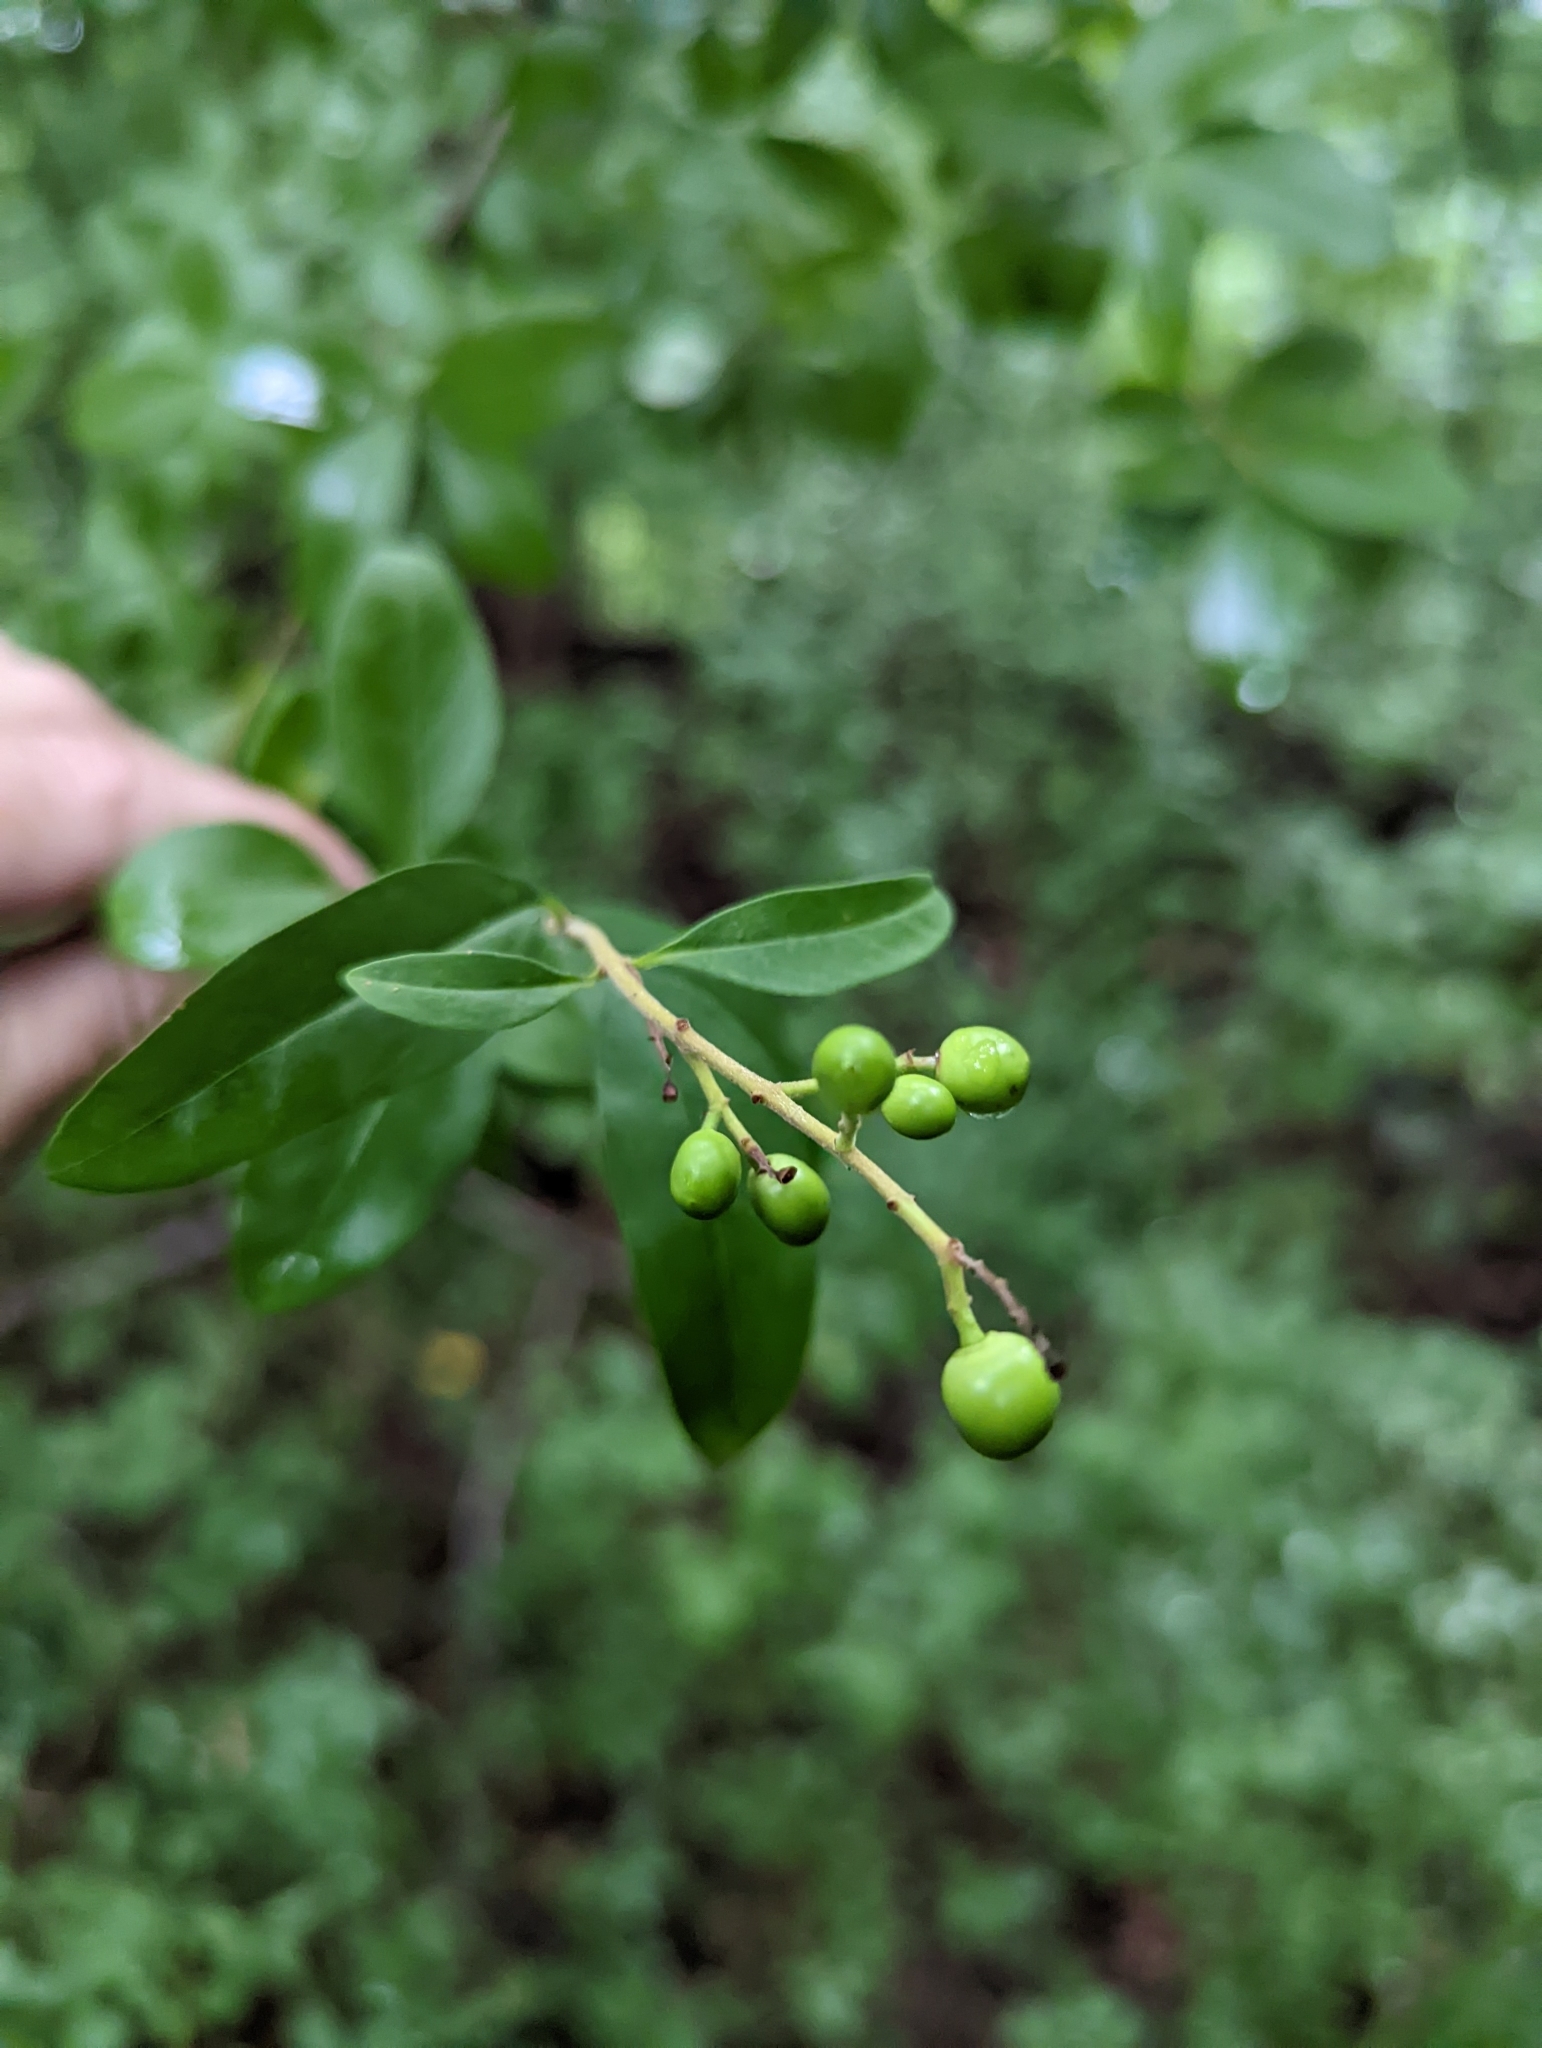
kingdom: Plantae
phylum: Tracheophyta
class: Magnoliopsida
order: Lamiales
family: Oleaceae
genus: Ligustrum
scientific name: Ligustrum obtusifolium
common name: Border privet
